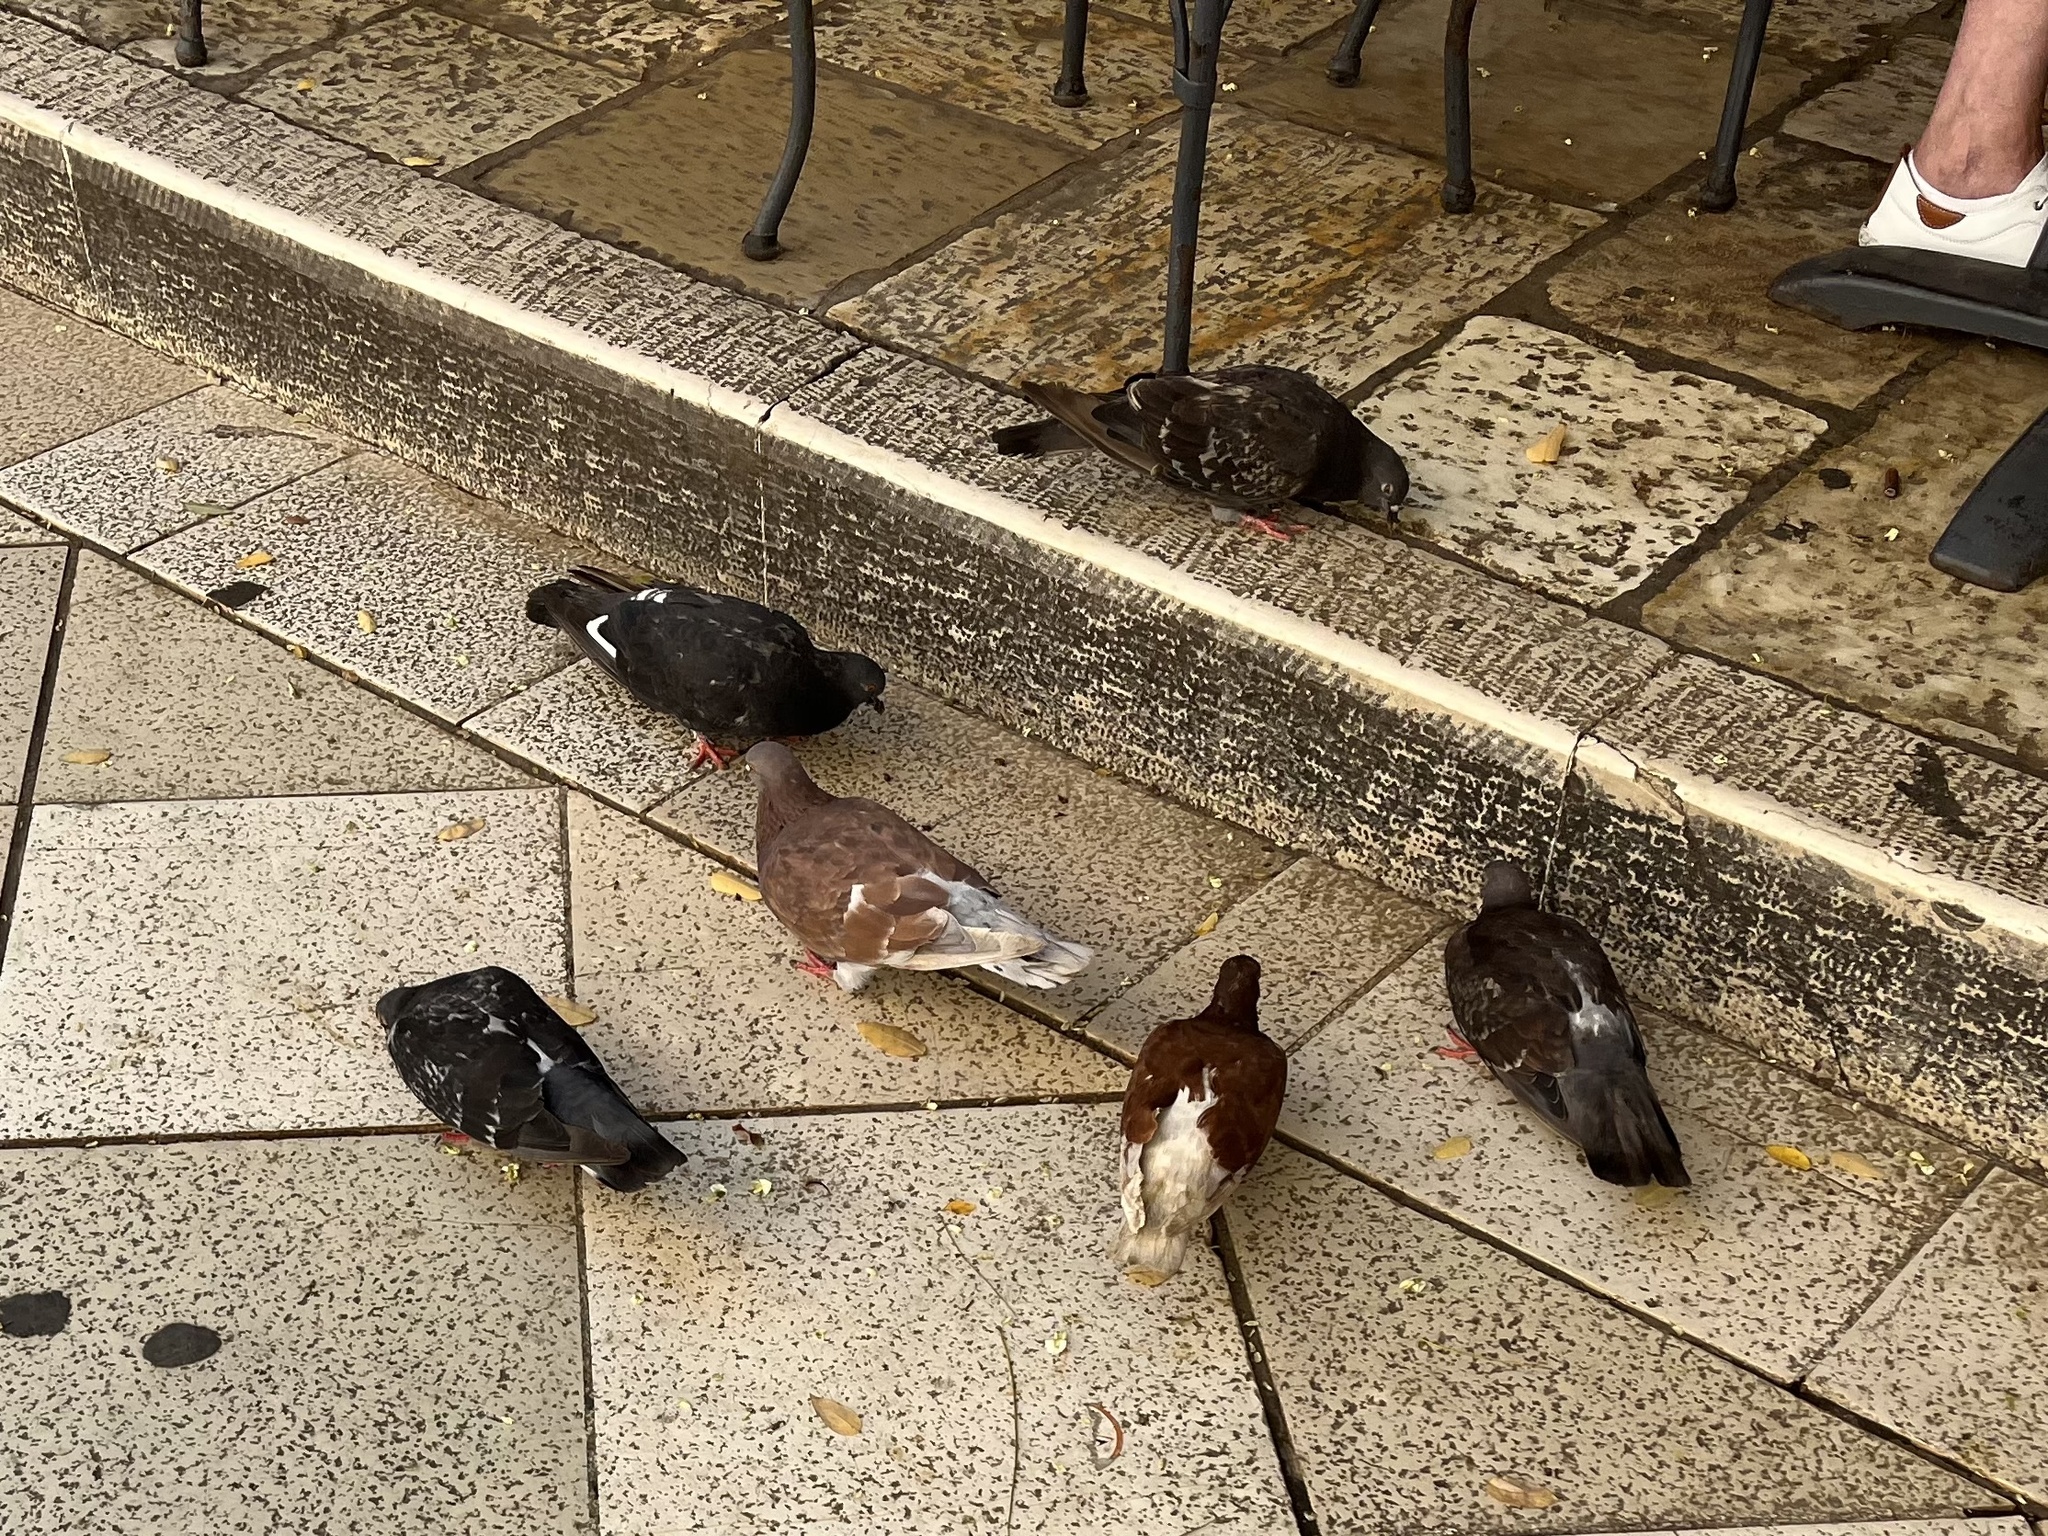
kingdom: Animalia
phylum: Chordata
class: Aves
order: Columbiformes
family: Columbidae
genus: Columba
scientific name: Columba livia
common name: Rock pigeon
